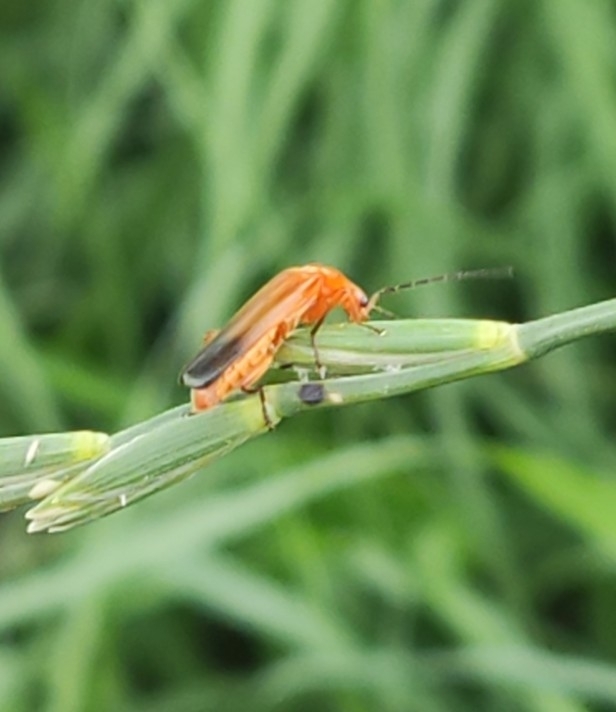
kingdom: Animalia
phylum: Arthropoda
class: Insecta
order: Coleoptera
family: Cantharidae
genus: Rhagonycha
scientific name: Rhagonycha fulva
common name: Common red soldier beetle
